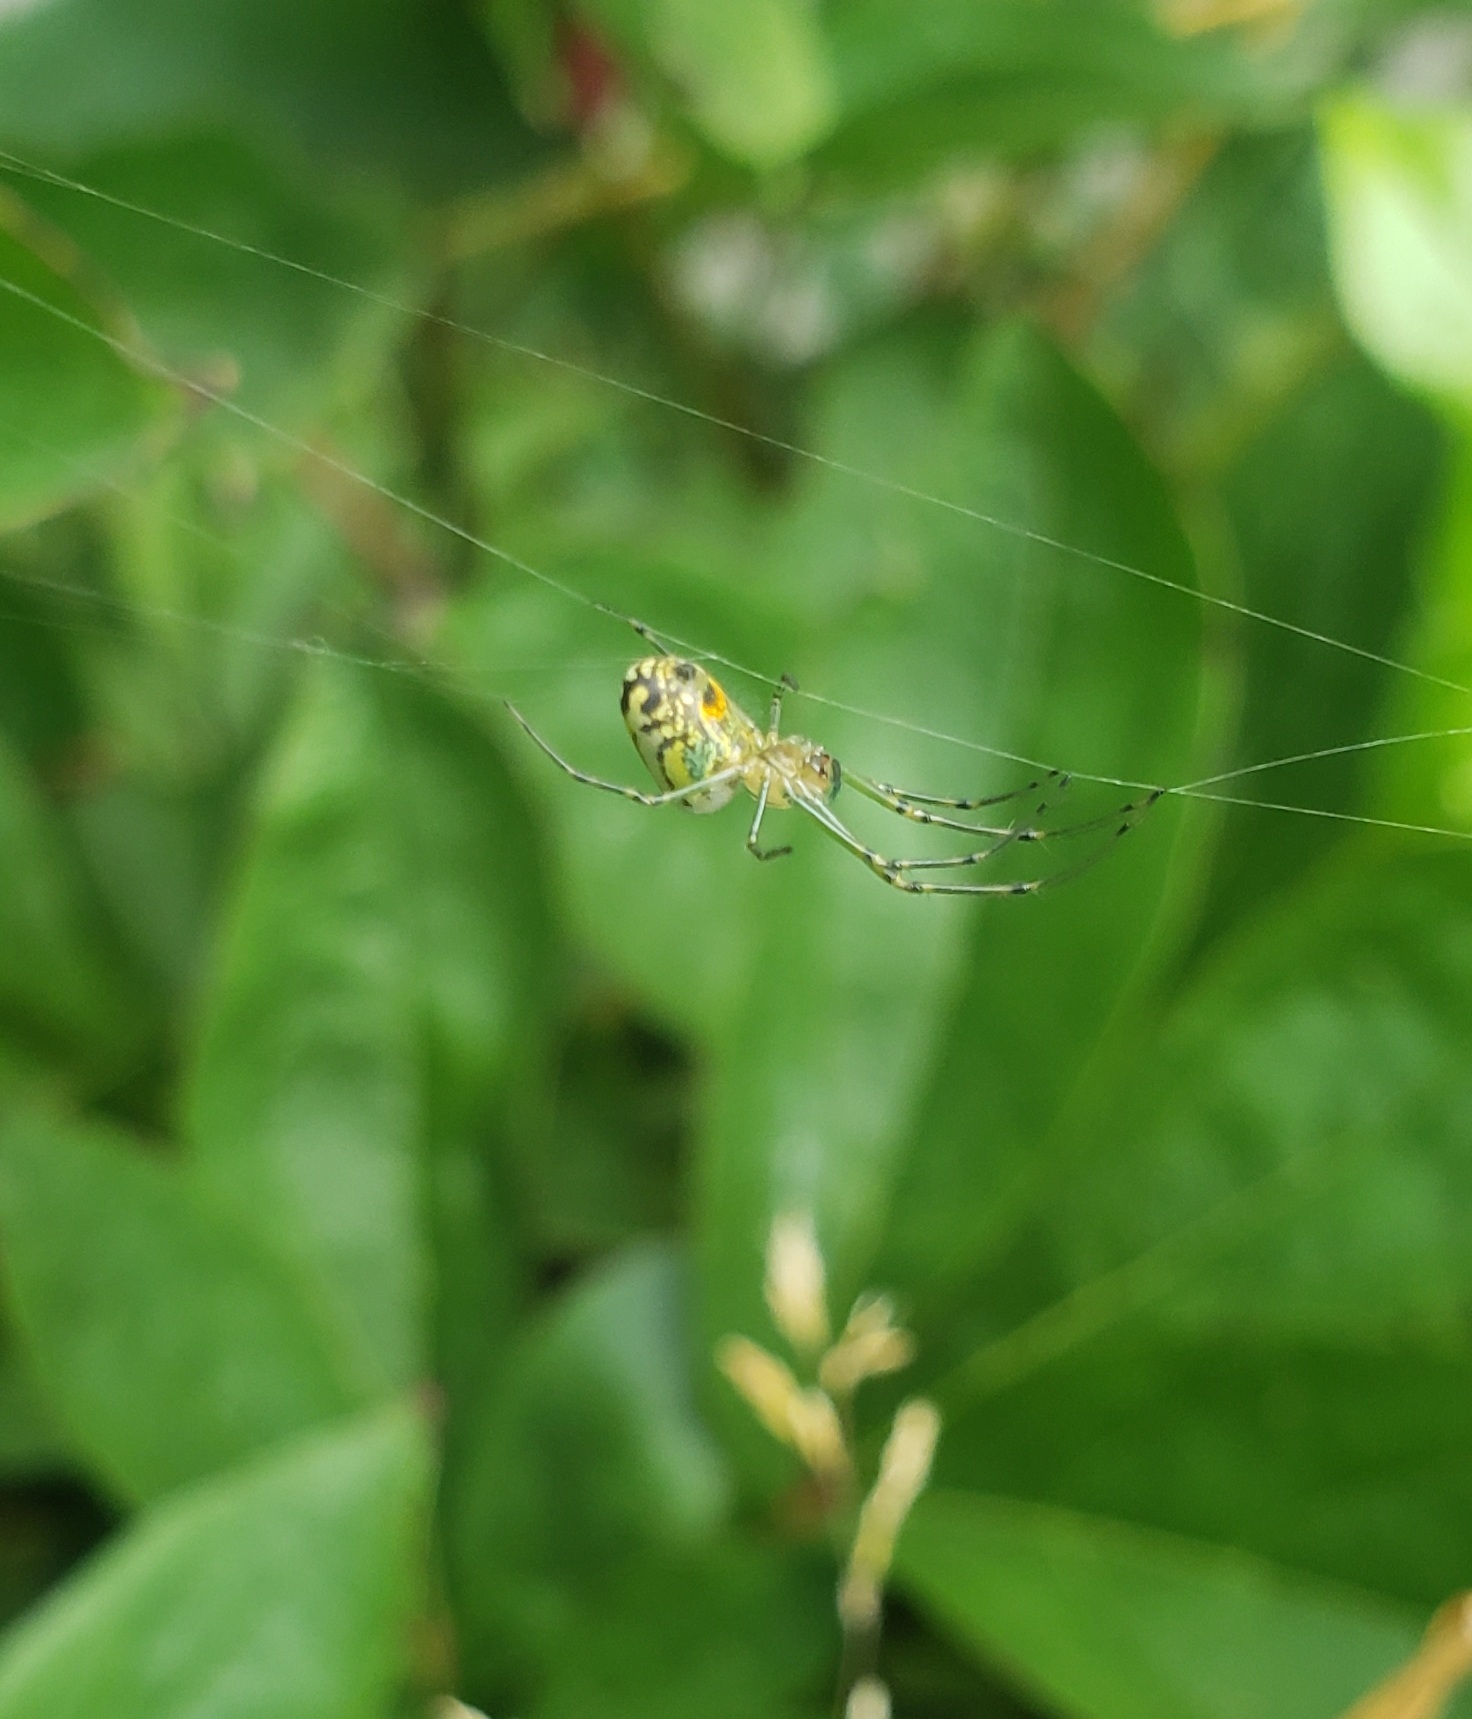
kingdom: Animalia
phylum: Arthropoda
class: Arachnida
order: Araneae
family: Tetragnathidae
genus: Leucauge
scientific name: Leucauge venusta
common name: Longjawed orb weavers
